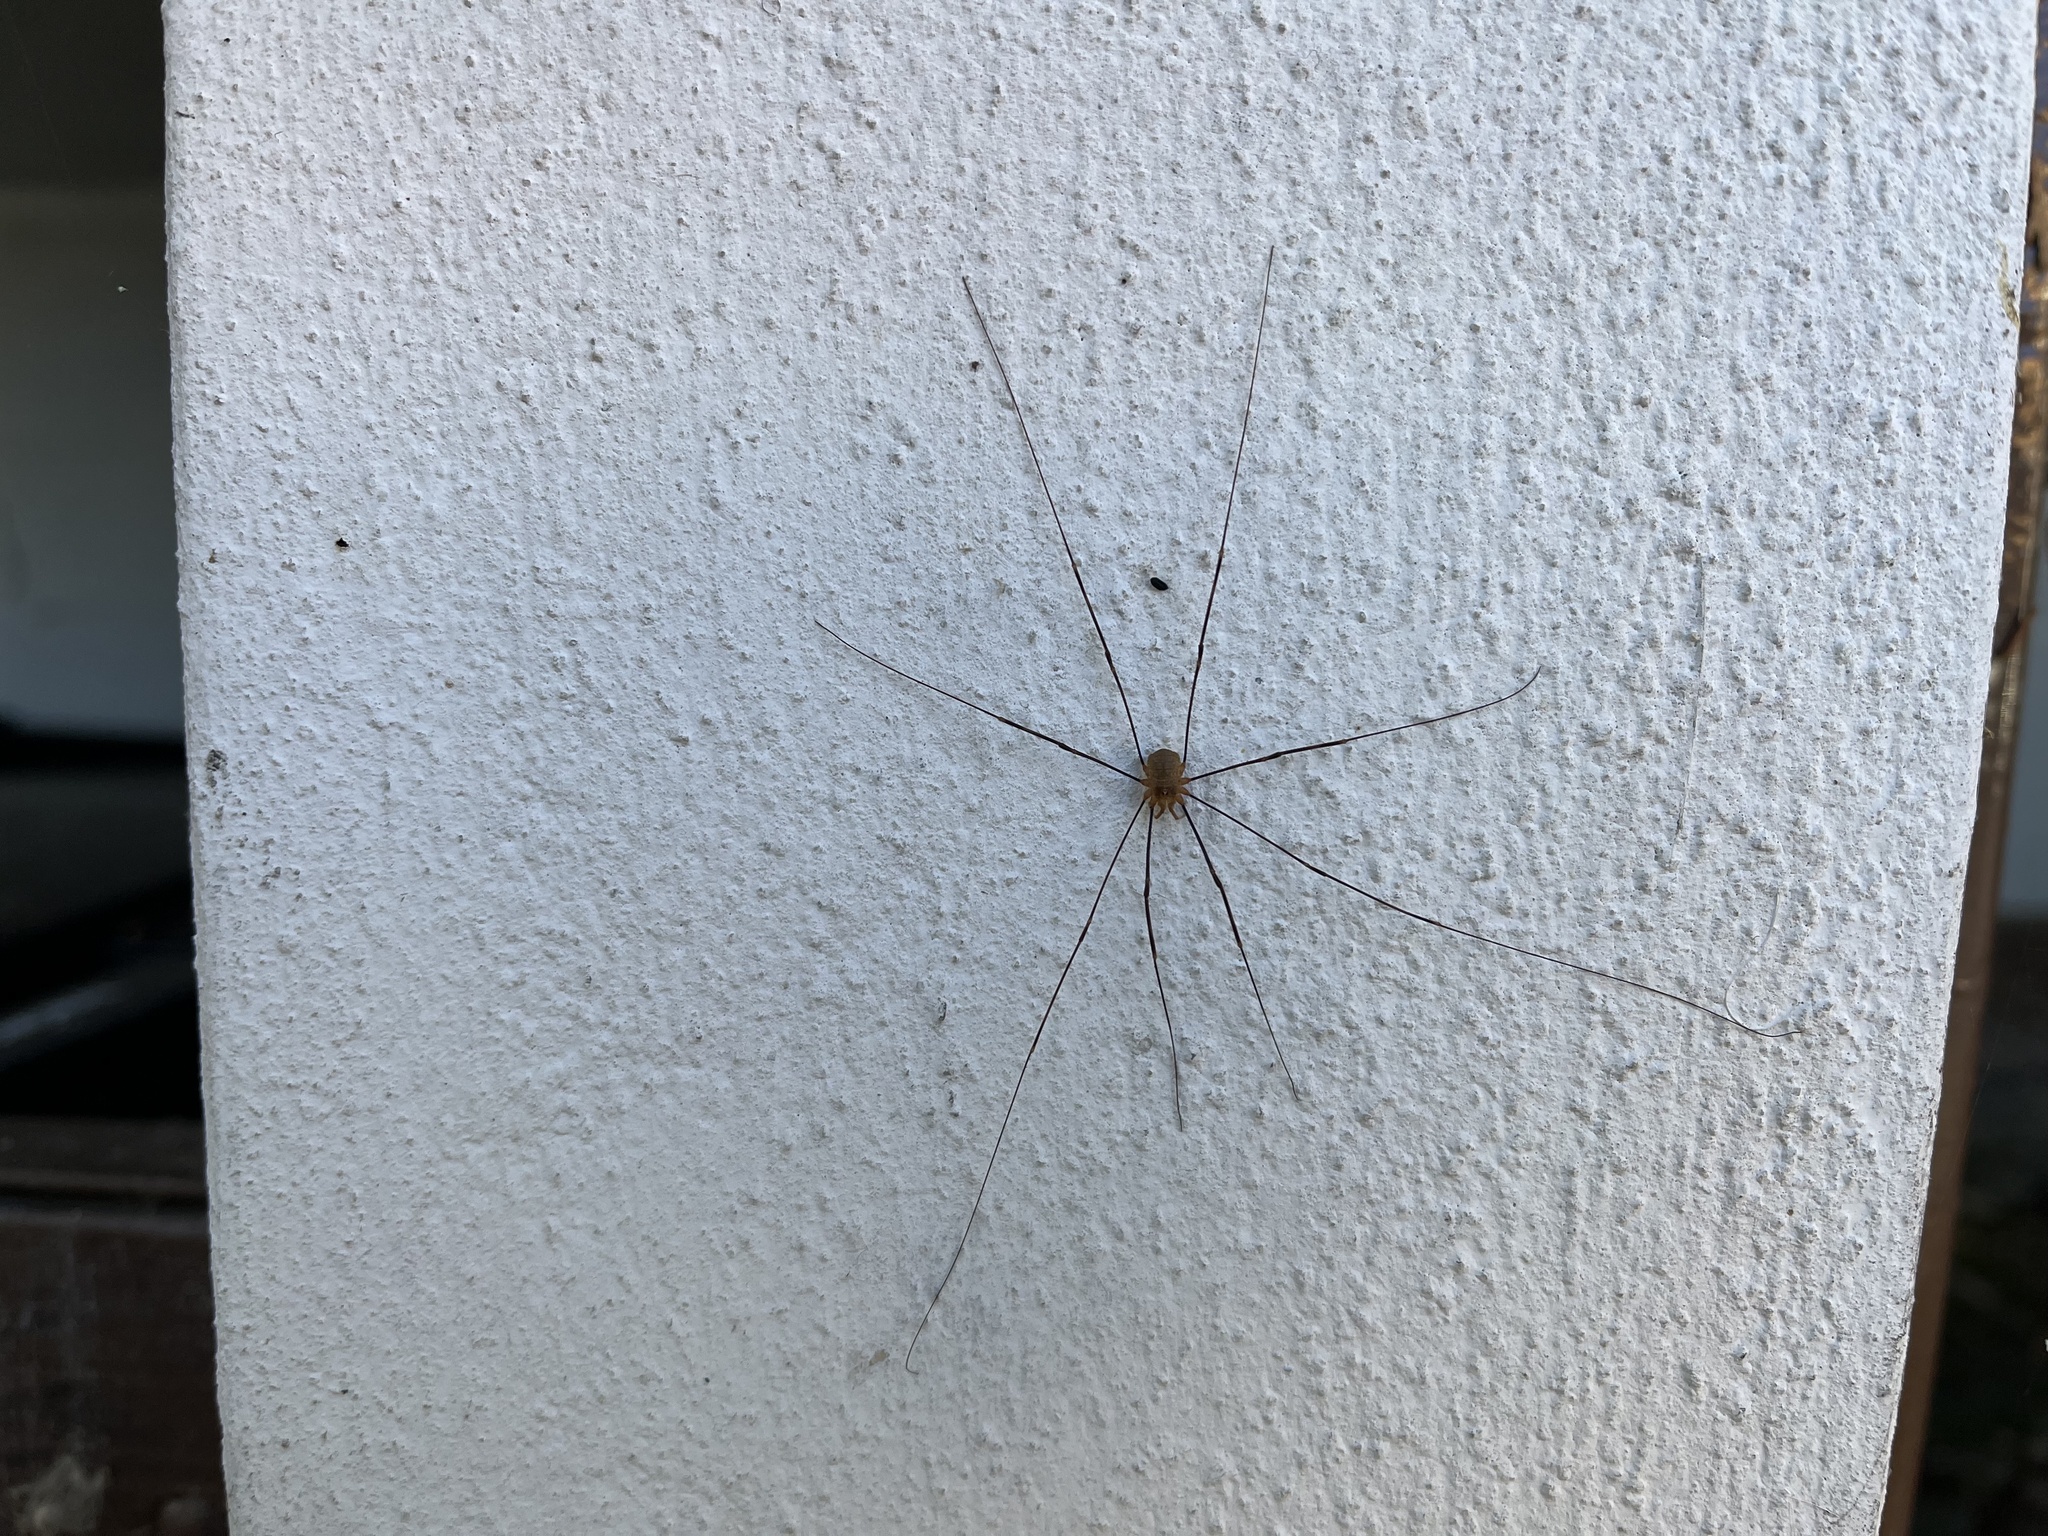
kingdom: Animalia
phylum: Arthropoda
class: Arachnida
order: Opiliones
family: Phalangiidae
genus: Opilio
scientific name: Opilio canestrinii
